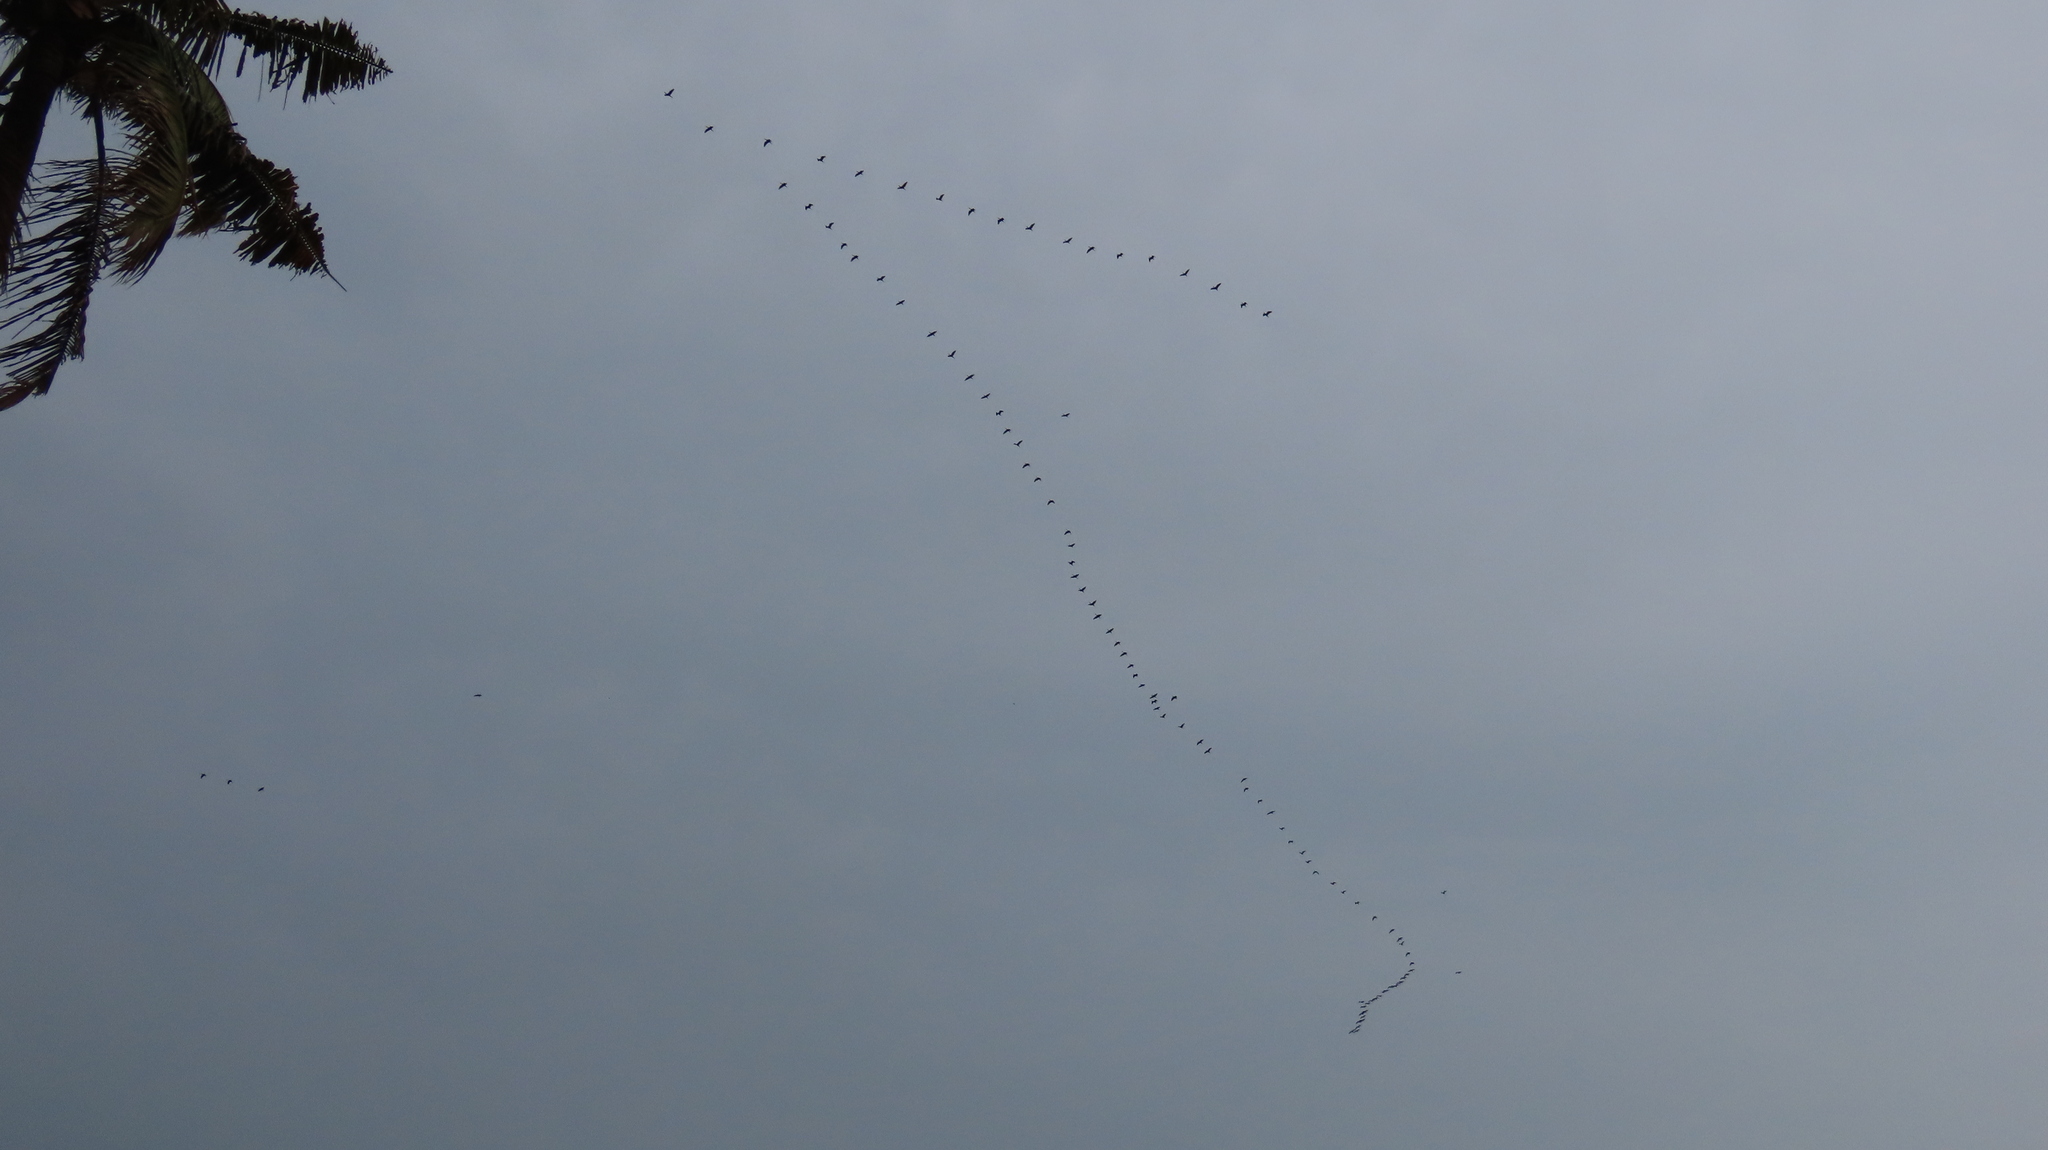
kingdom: Animalia
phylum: Chordata
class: Aves
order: Pelecaniformes
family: Threskiornithidae
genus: Plegadis
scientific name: Plegadis falcinellus
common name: Glossy ibis
